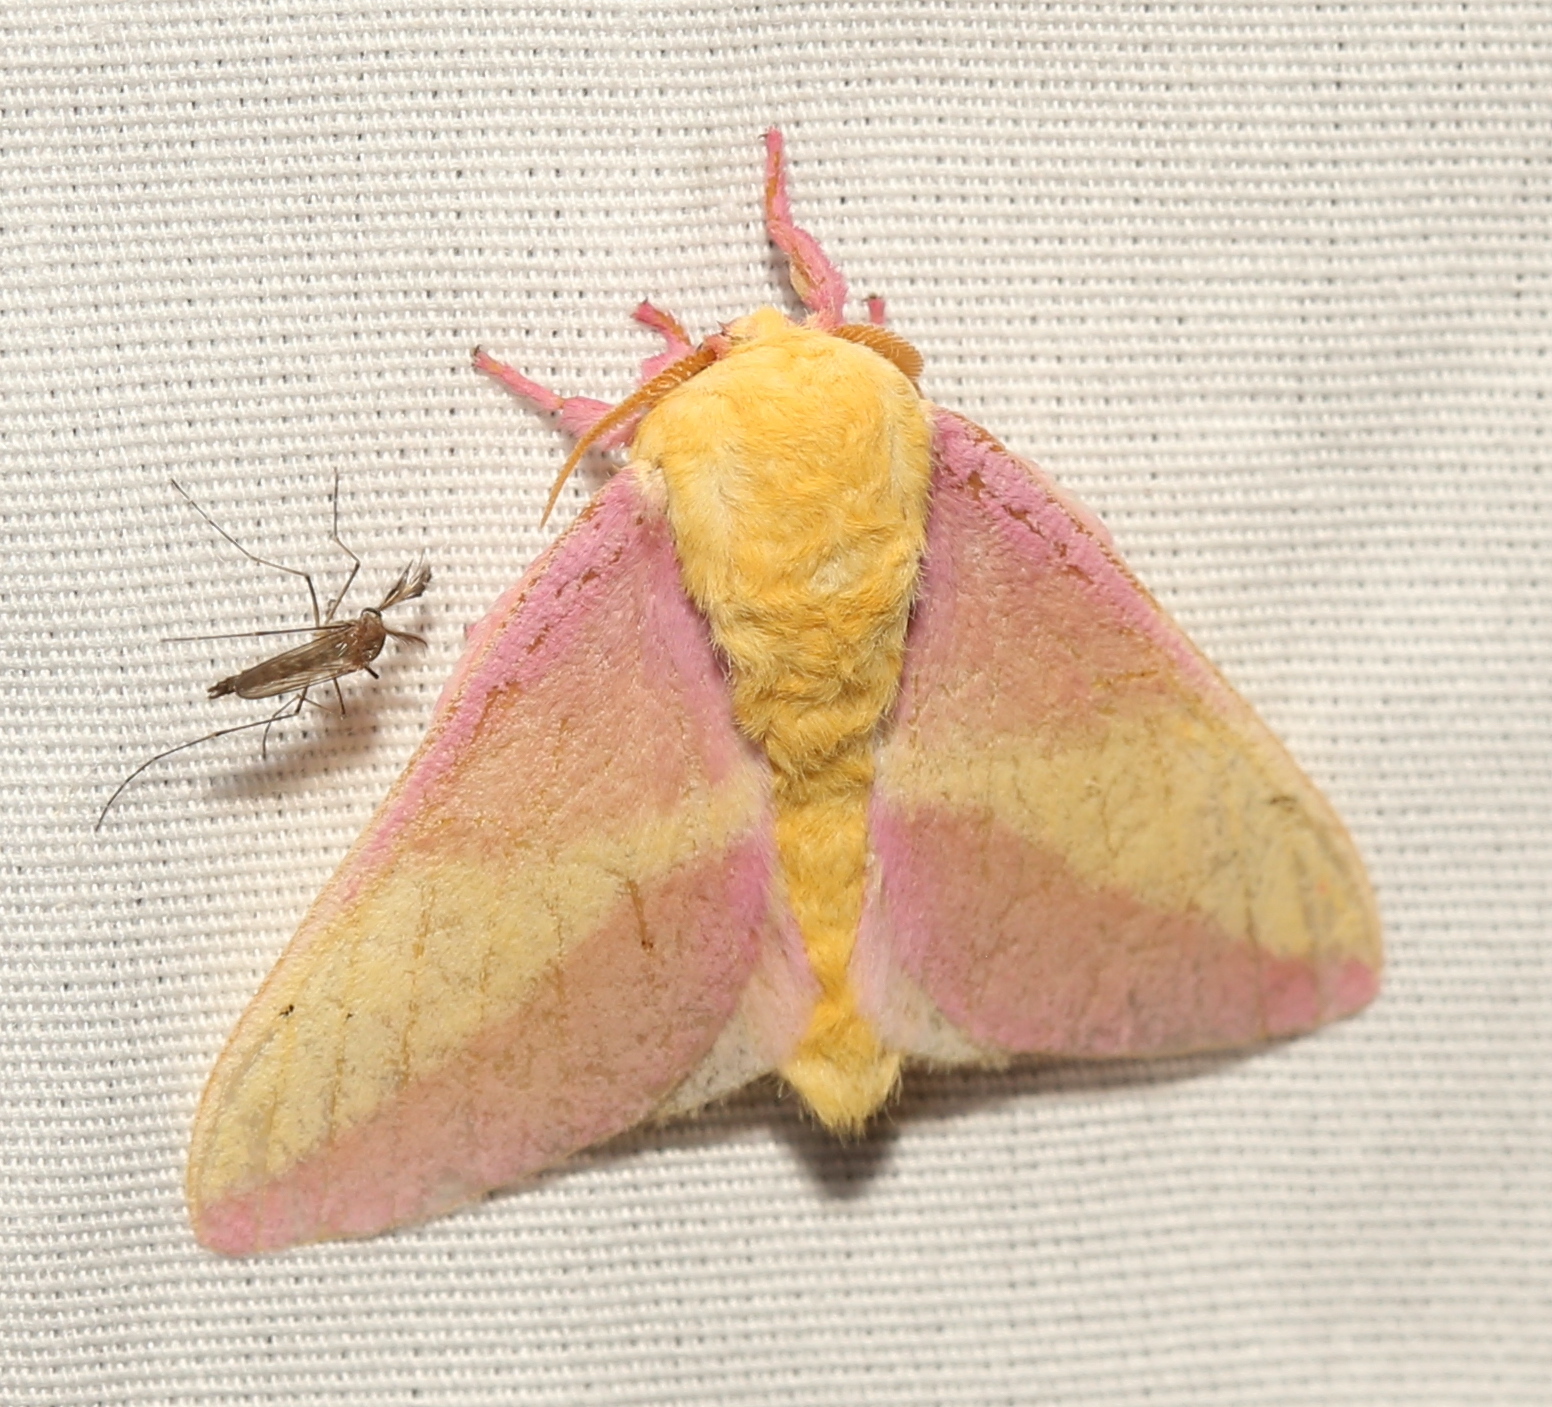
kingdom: Animalia
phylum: Arthropoda
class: Insecta
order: Lepidoptera
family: Saturniidae
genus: Dryocampa
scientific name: Dryocampa rubicunda
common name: Rosy maple moth
